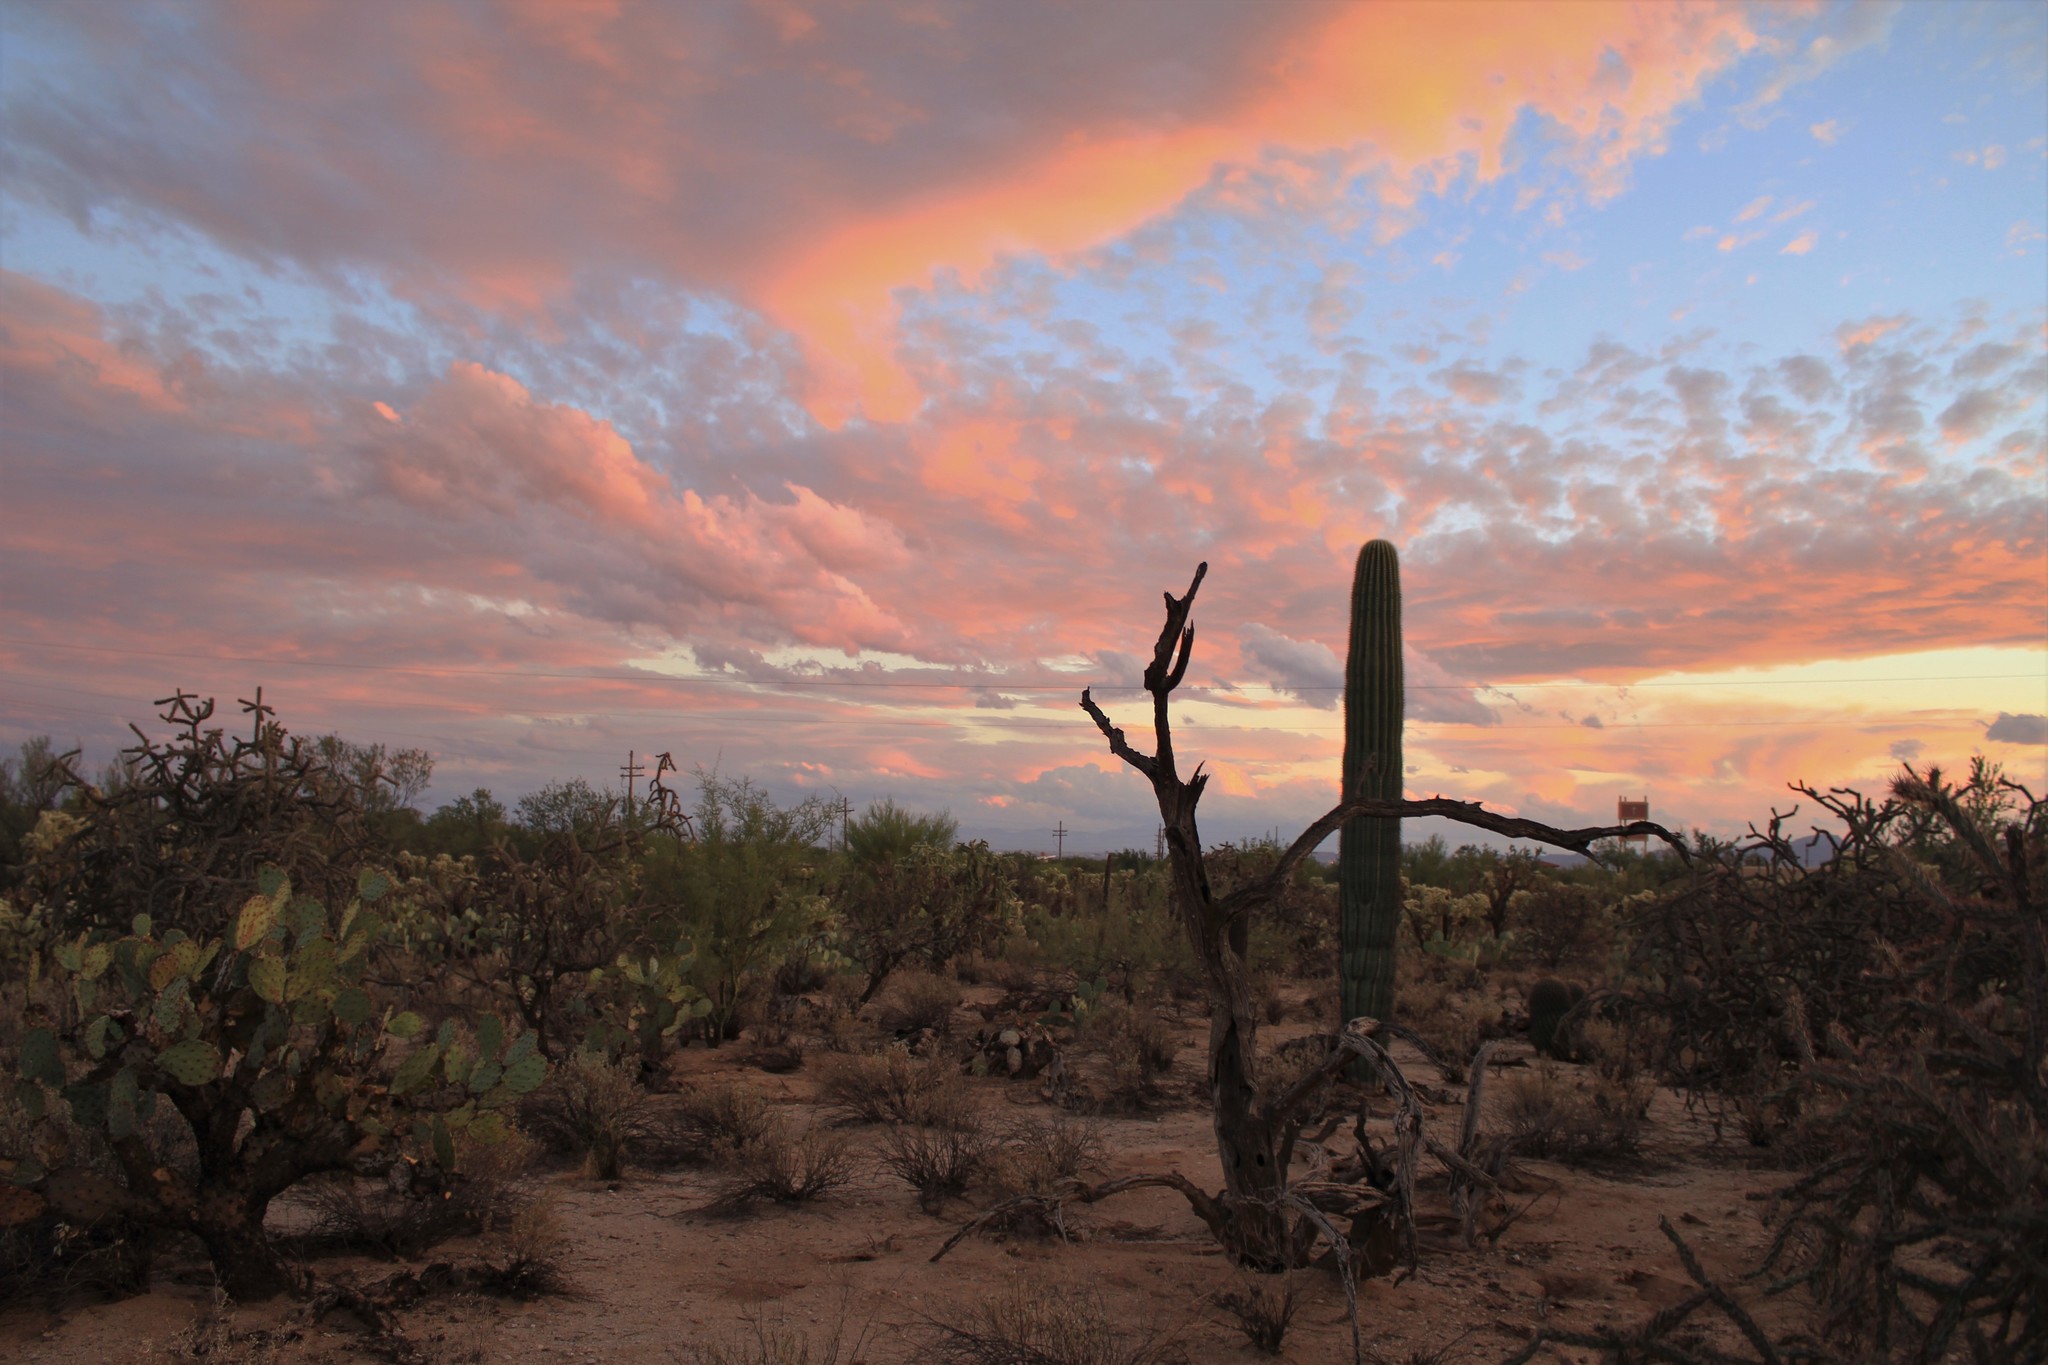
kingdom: Plantae
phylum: Tracheophyta
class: Magnoliopsida
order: Caryophyllales
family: Cactaceae
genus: Carnegiea
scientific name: Carnegiea gigantea
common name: Saguaro
